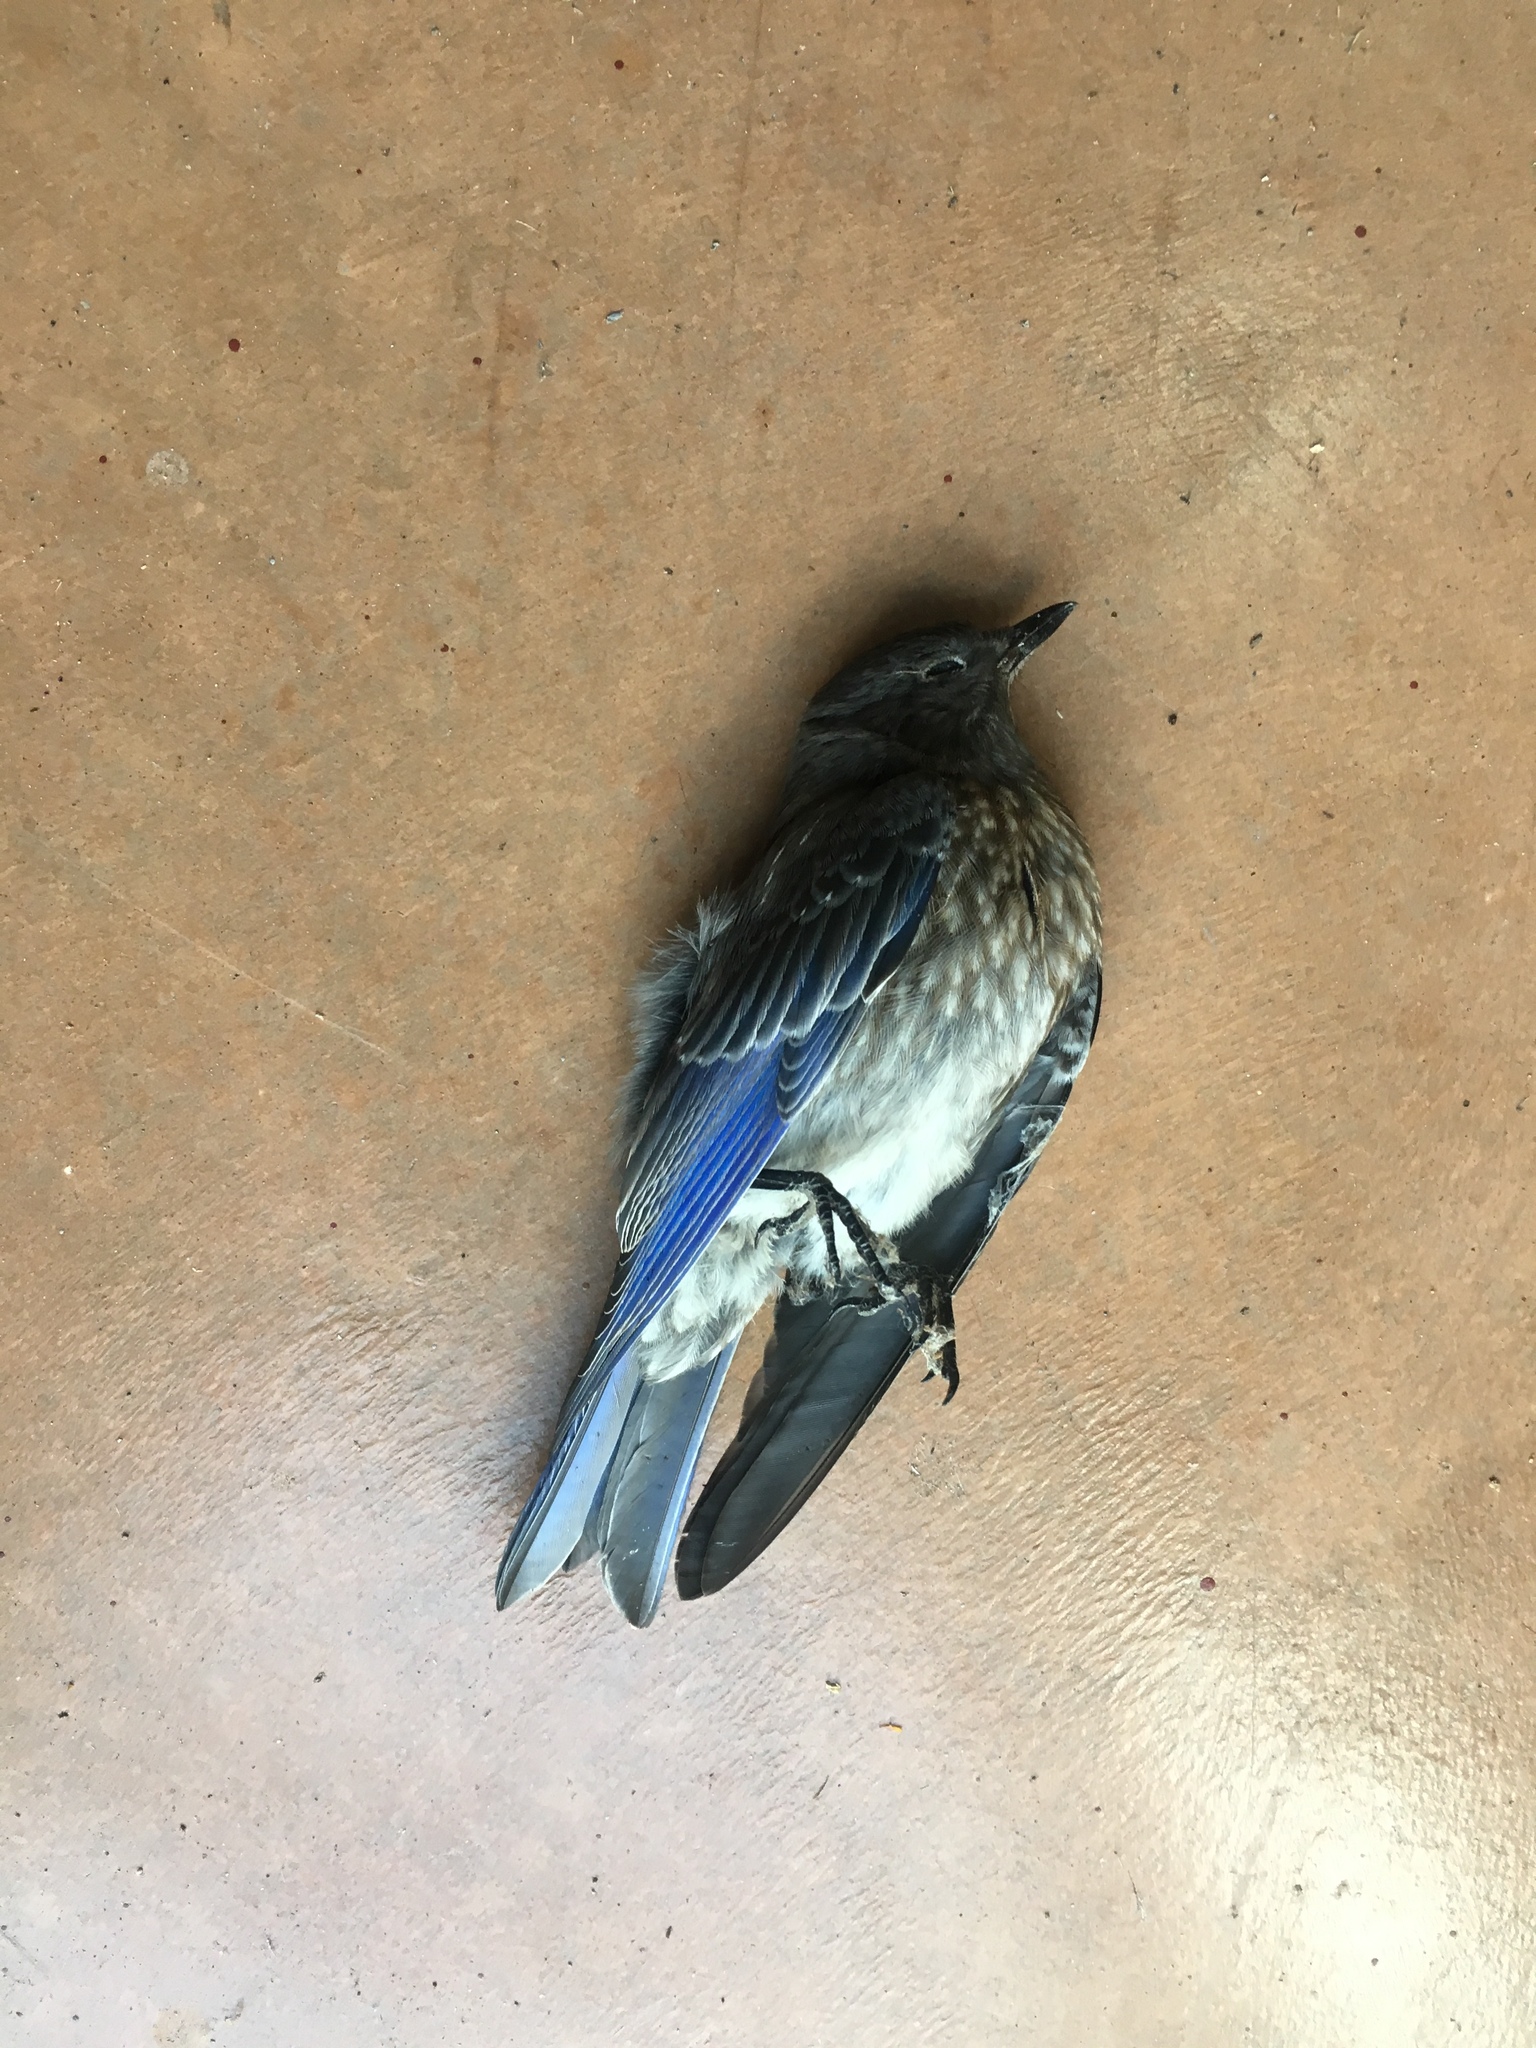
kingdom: Animalia
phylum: Chordata
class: Aves
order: Passeriformes
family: Turdidae
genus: Sialia
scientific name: Sialia mexicana
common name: Western bluebird
